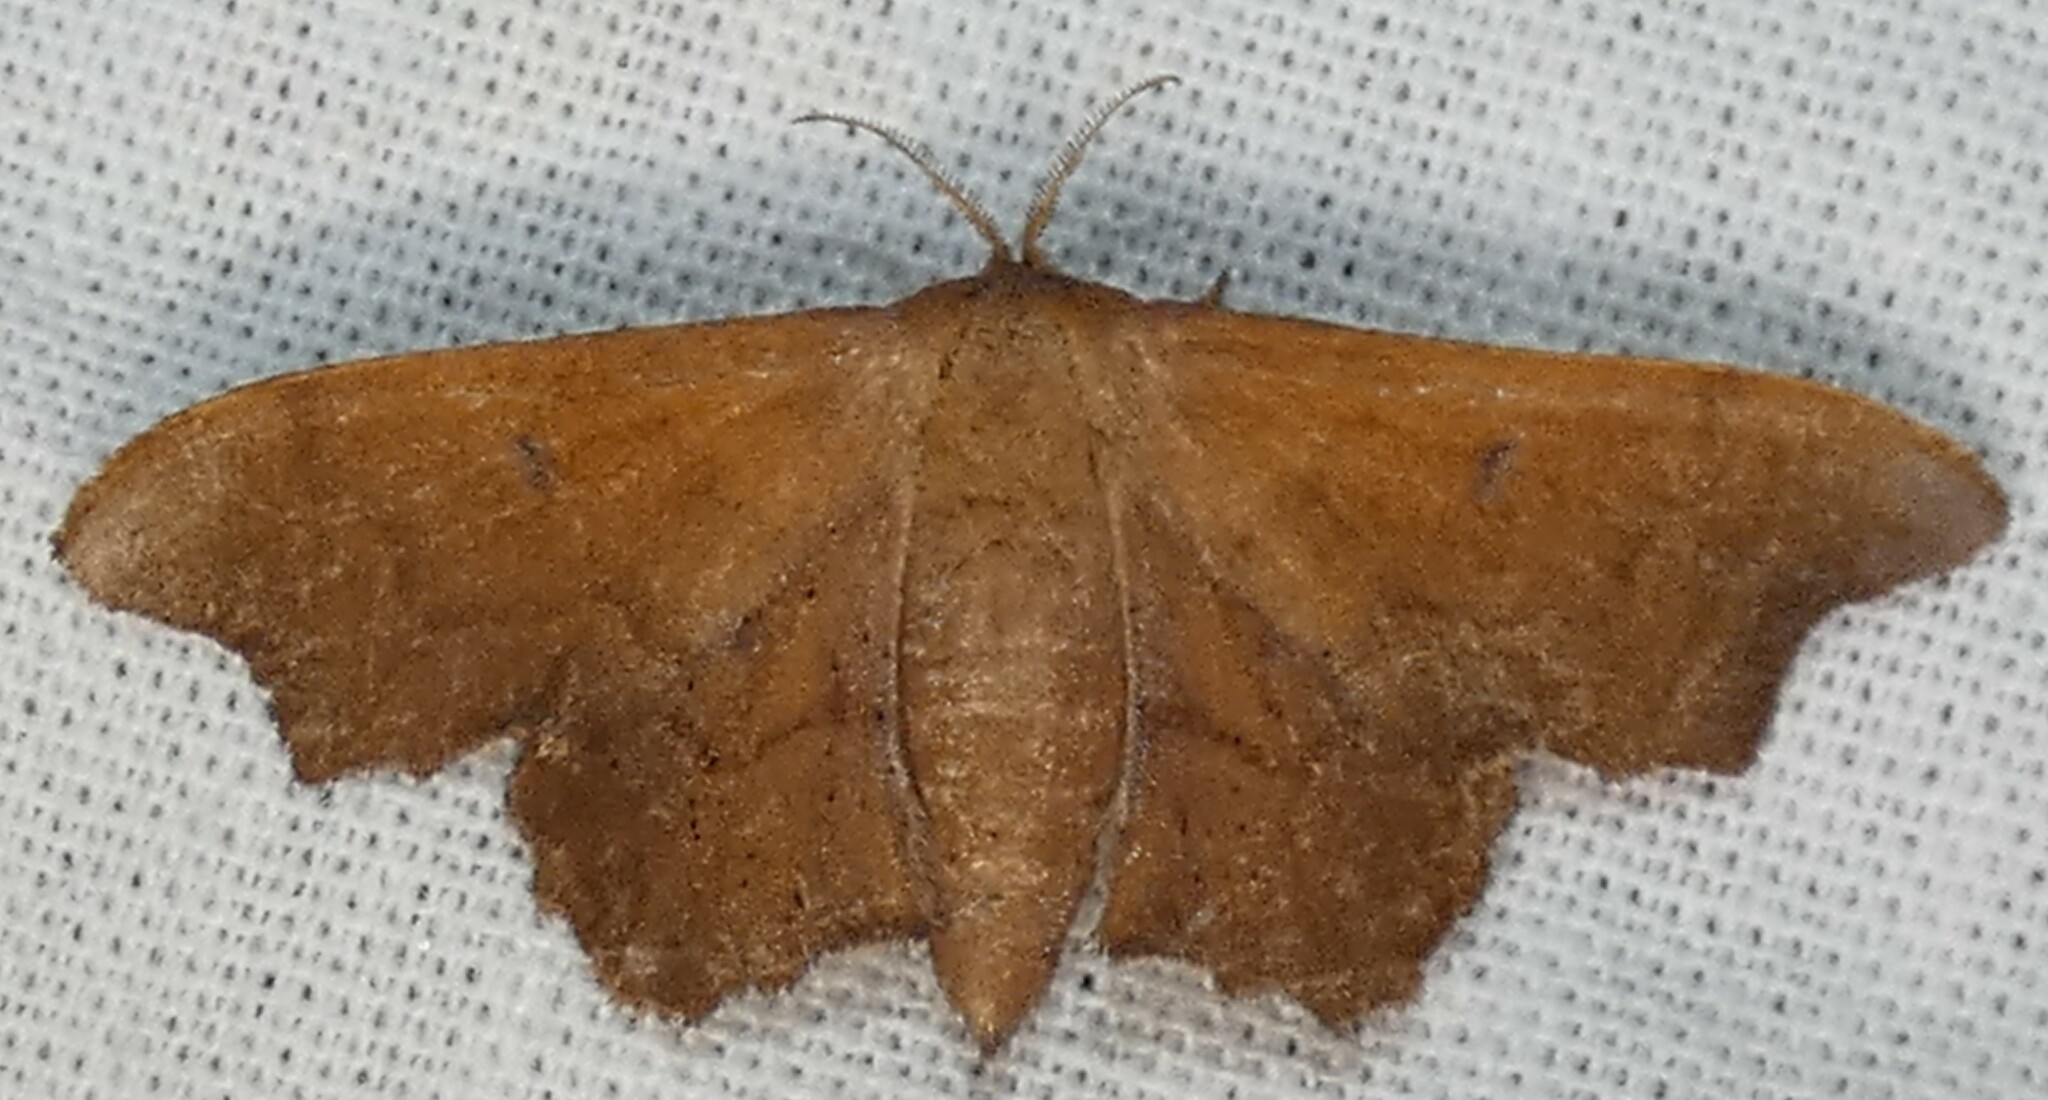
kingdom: Animalia
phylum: Arthropoda
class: Insecta
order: Lepidoptera
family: Mimallonidae
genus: Lacosoma
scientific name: Lacosoma chiridota
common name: Scalloped sack-bearer moth
